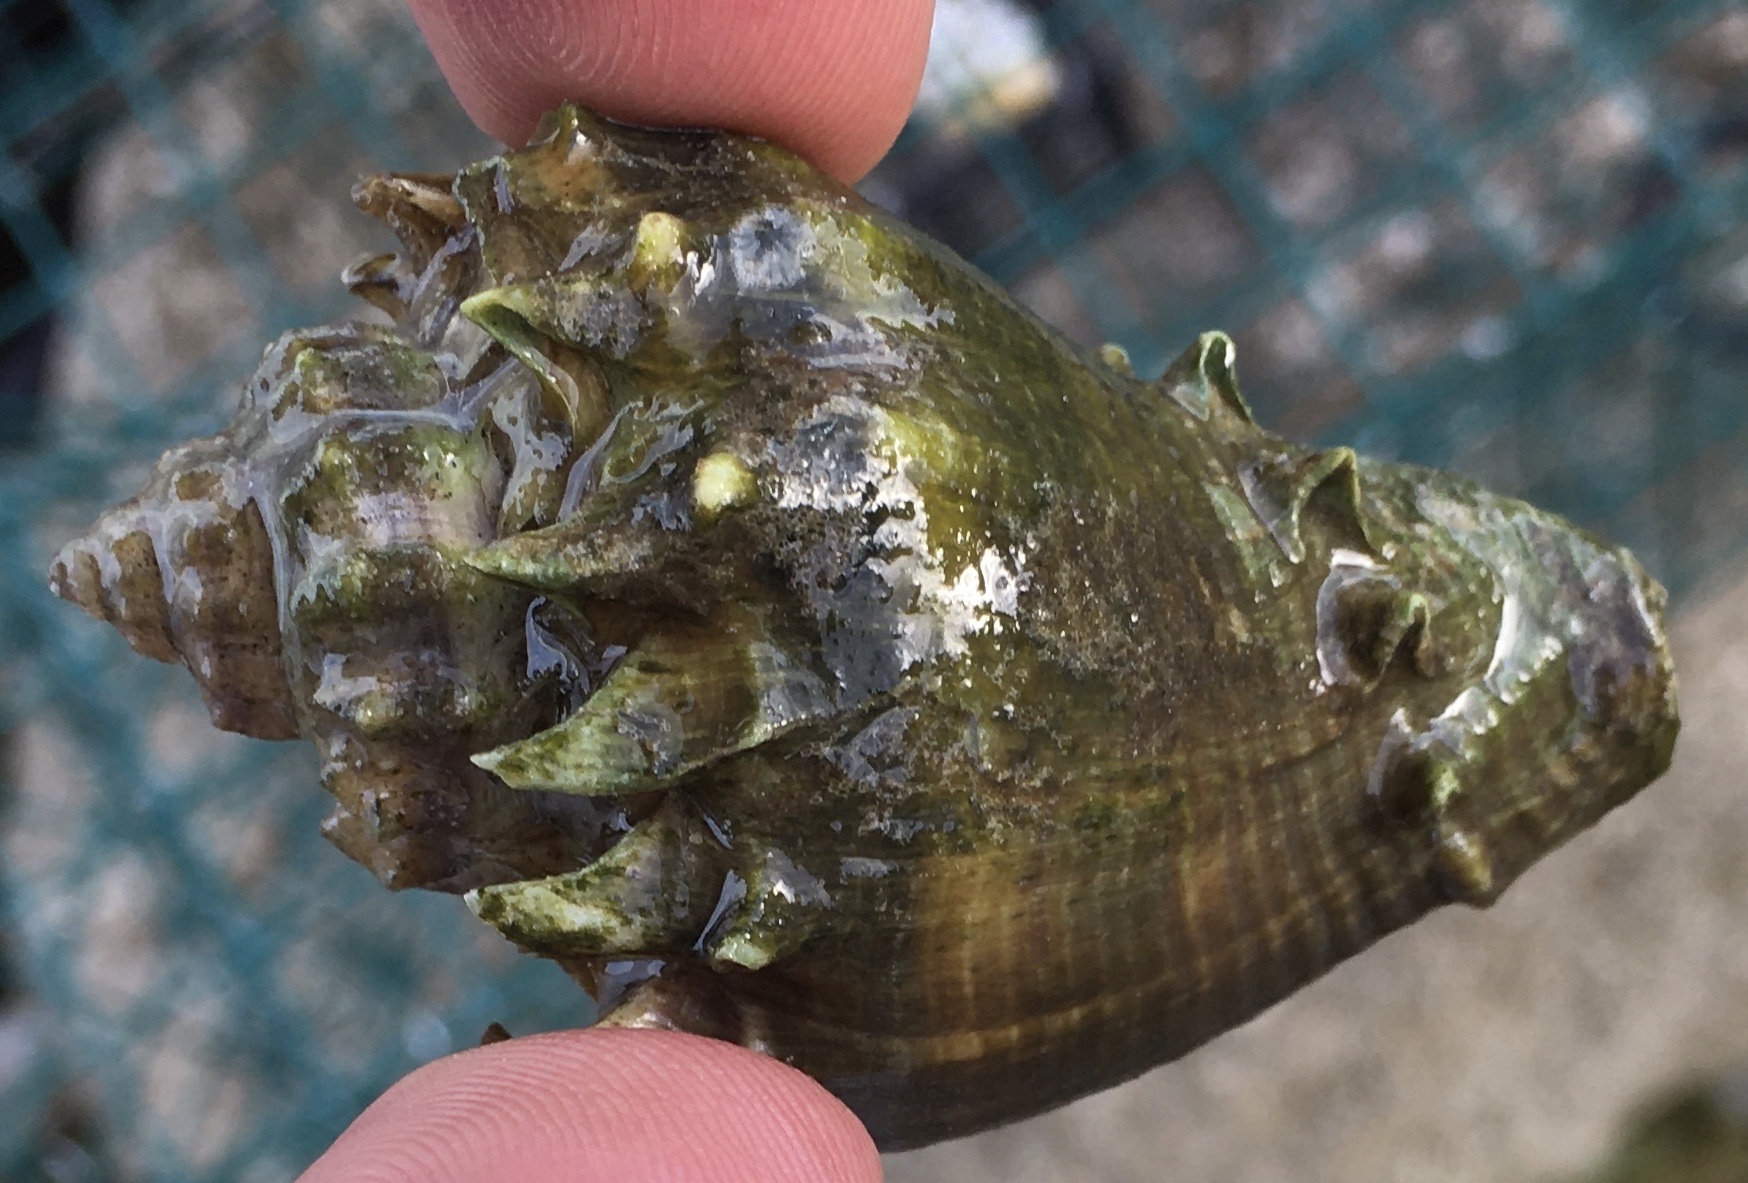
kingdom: Animalia
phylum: Mollusca
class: Gastropoda
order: Neogastropoda
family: Melongenidae
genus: Melongena
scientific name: Melongena corona
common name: American crown conch
